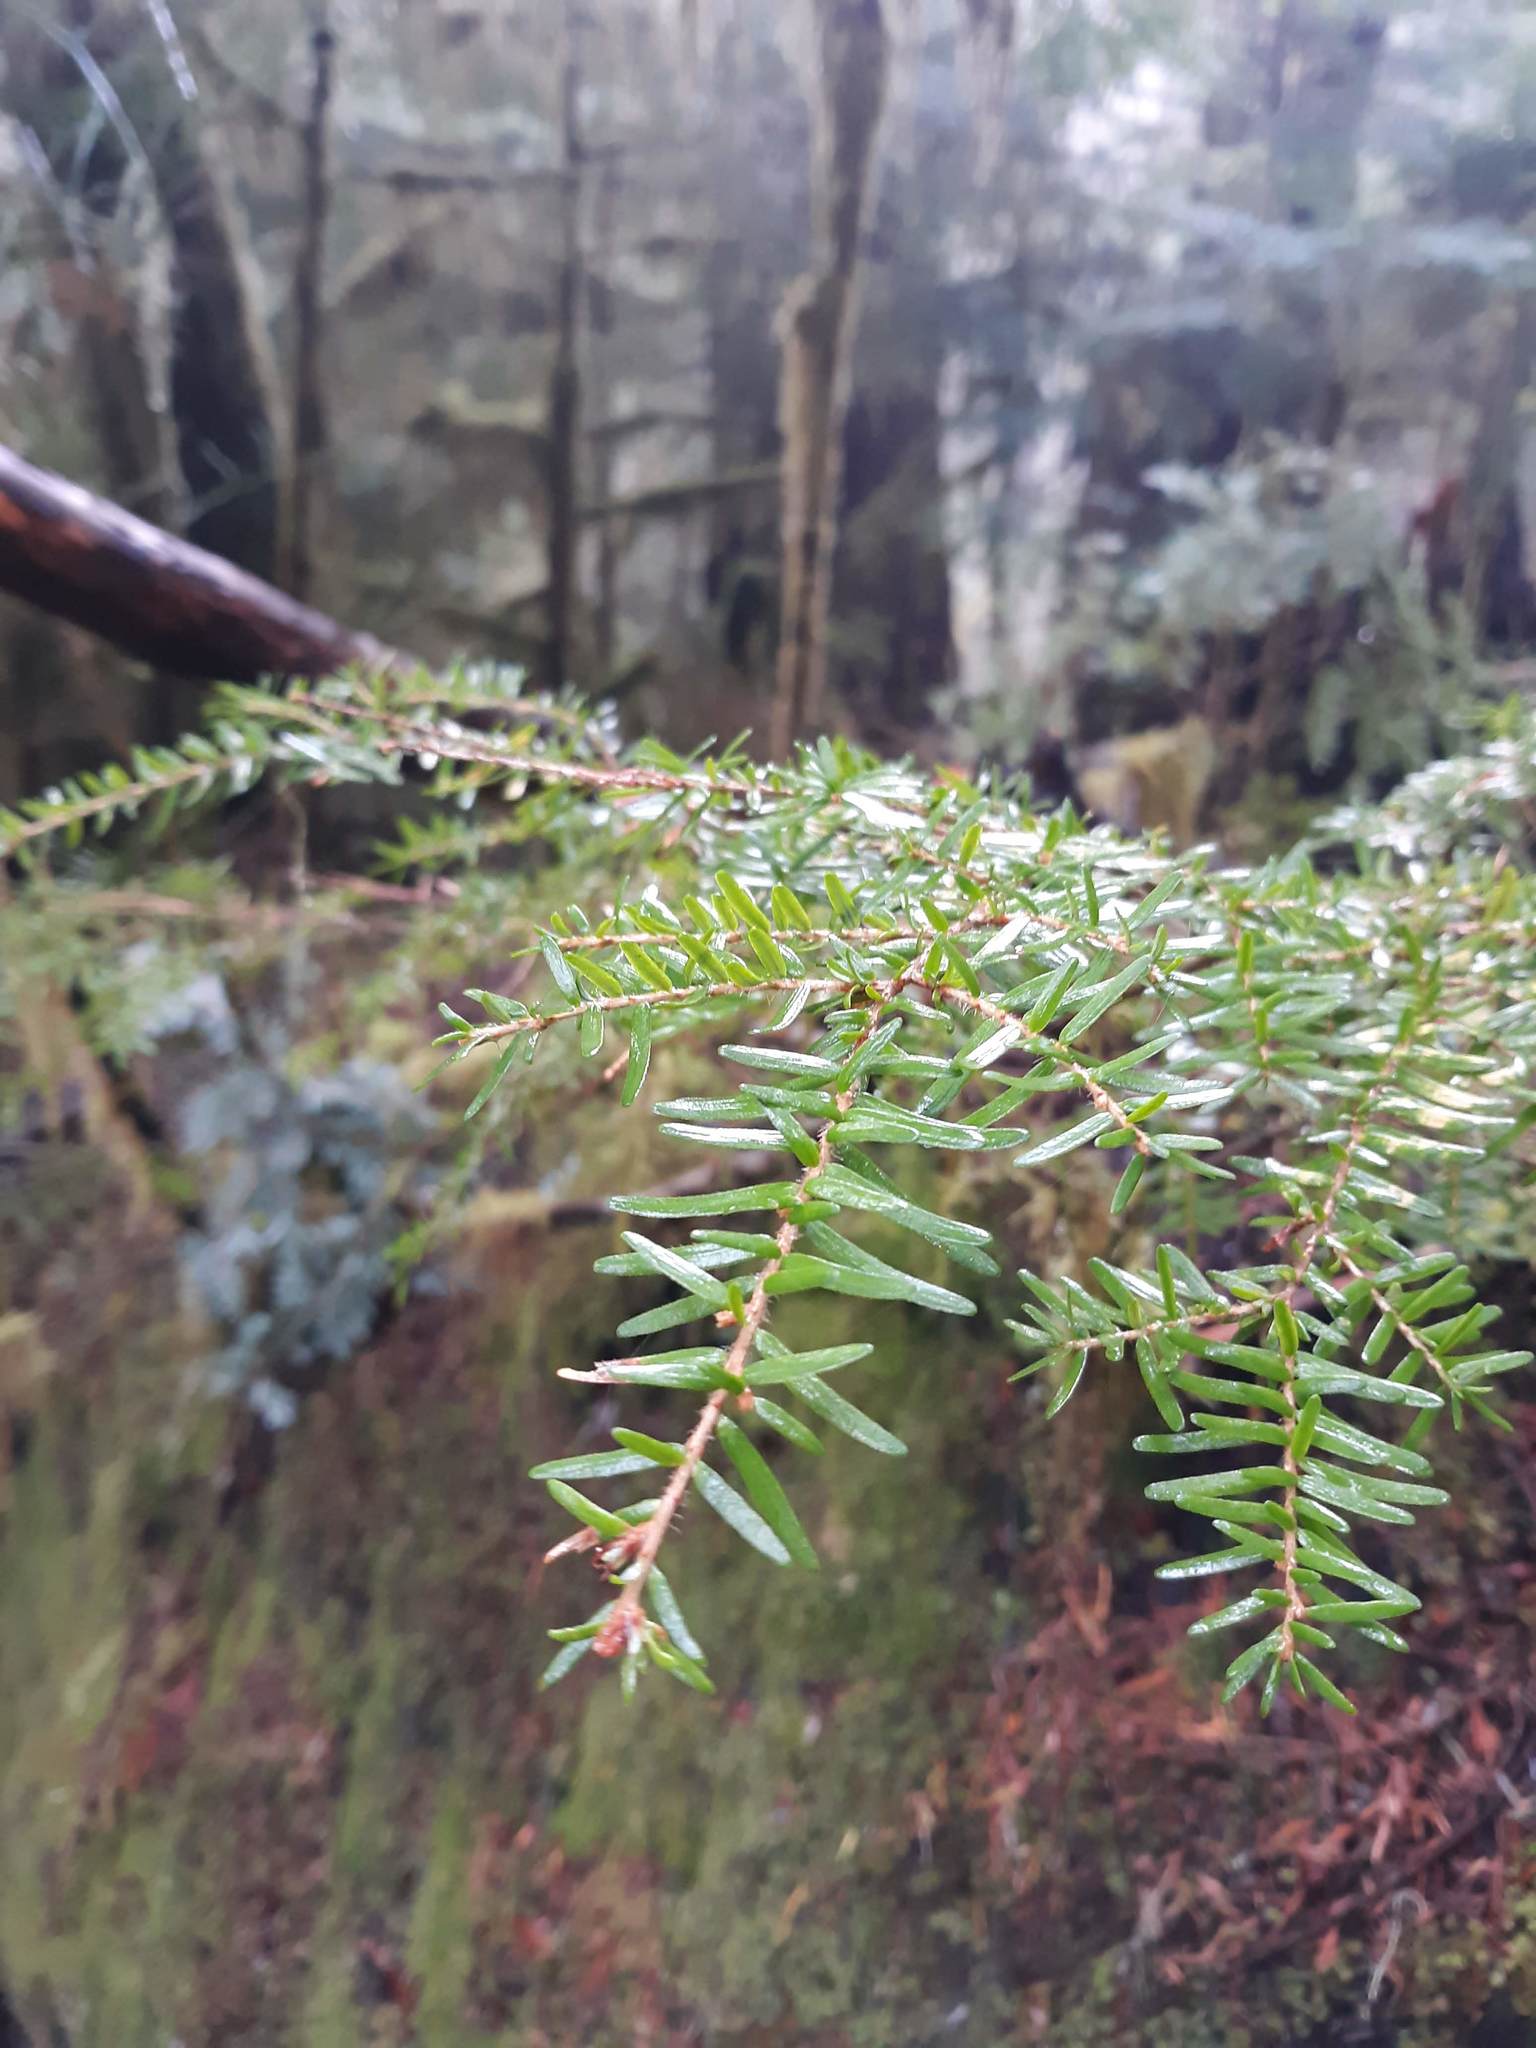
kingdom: Plantae
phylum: Tracheophyta
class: Pinopsida
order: Pinales
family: Pinaceae
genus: Tsuga
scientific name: Tsuga heterophylla
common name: Western hemlock
